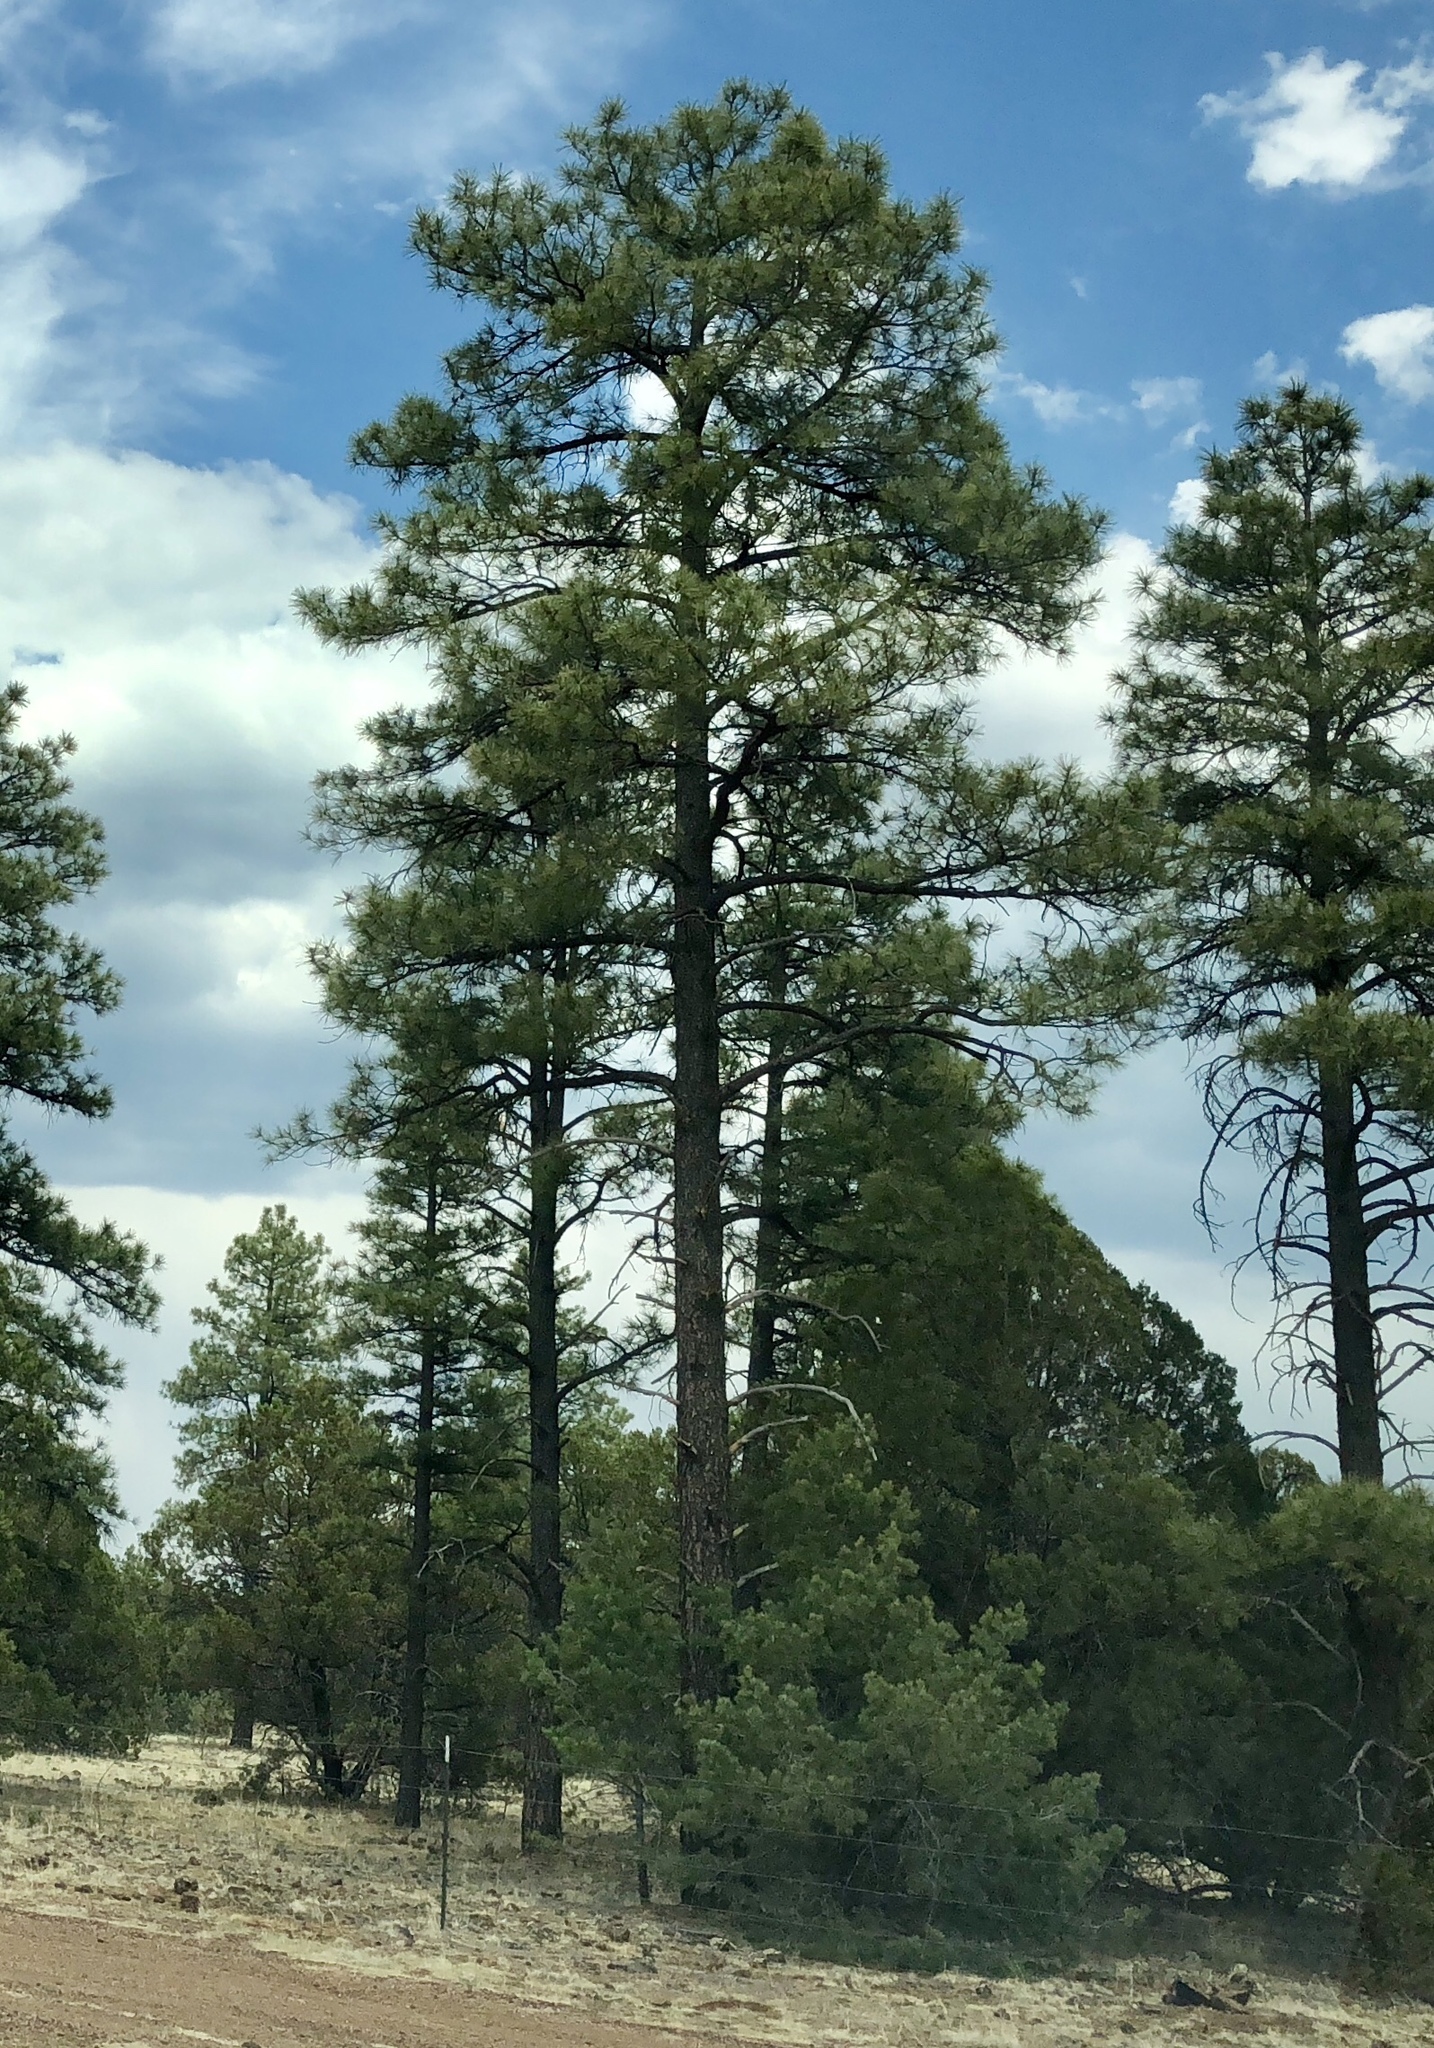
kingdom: Plantae
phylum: Tracheophyta
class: Pinopsida
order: Pinales
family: Pinaceae
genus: Pinus
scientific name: Pinus ponderosa
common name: Western yellow-pine
